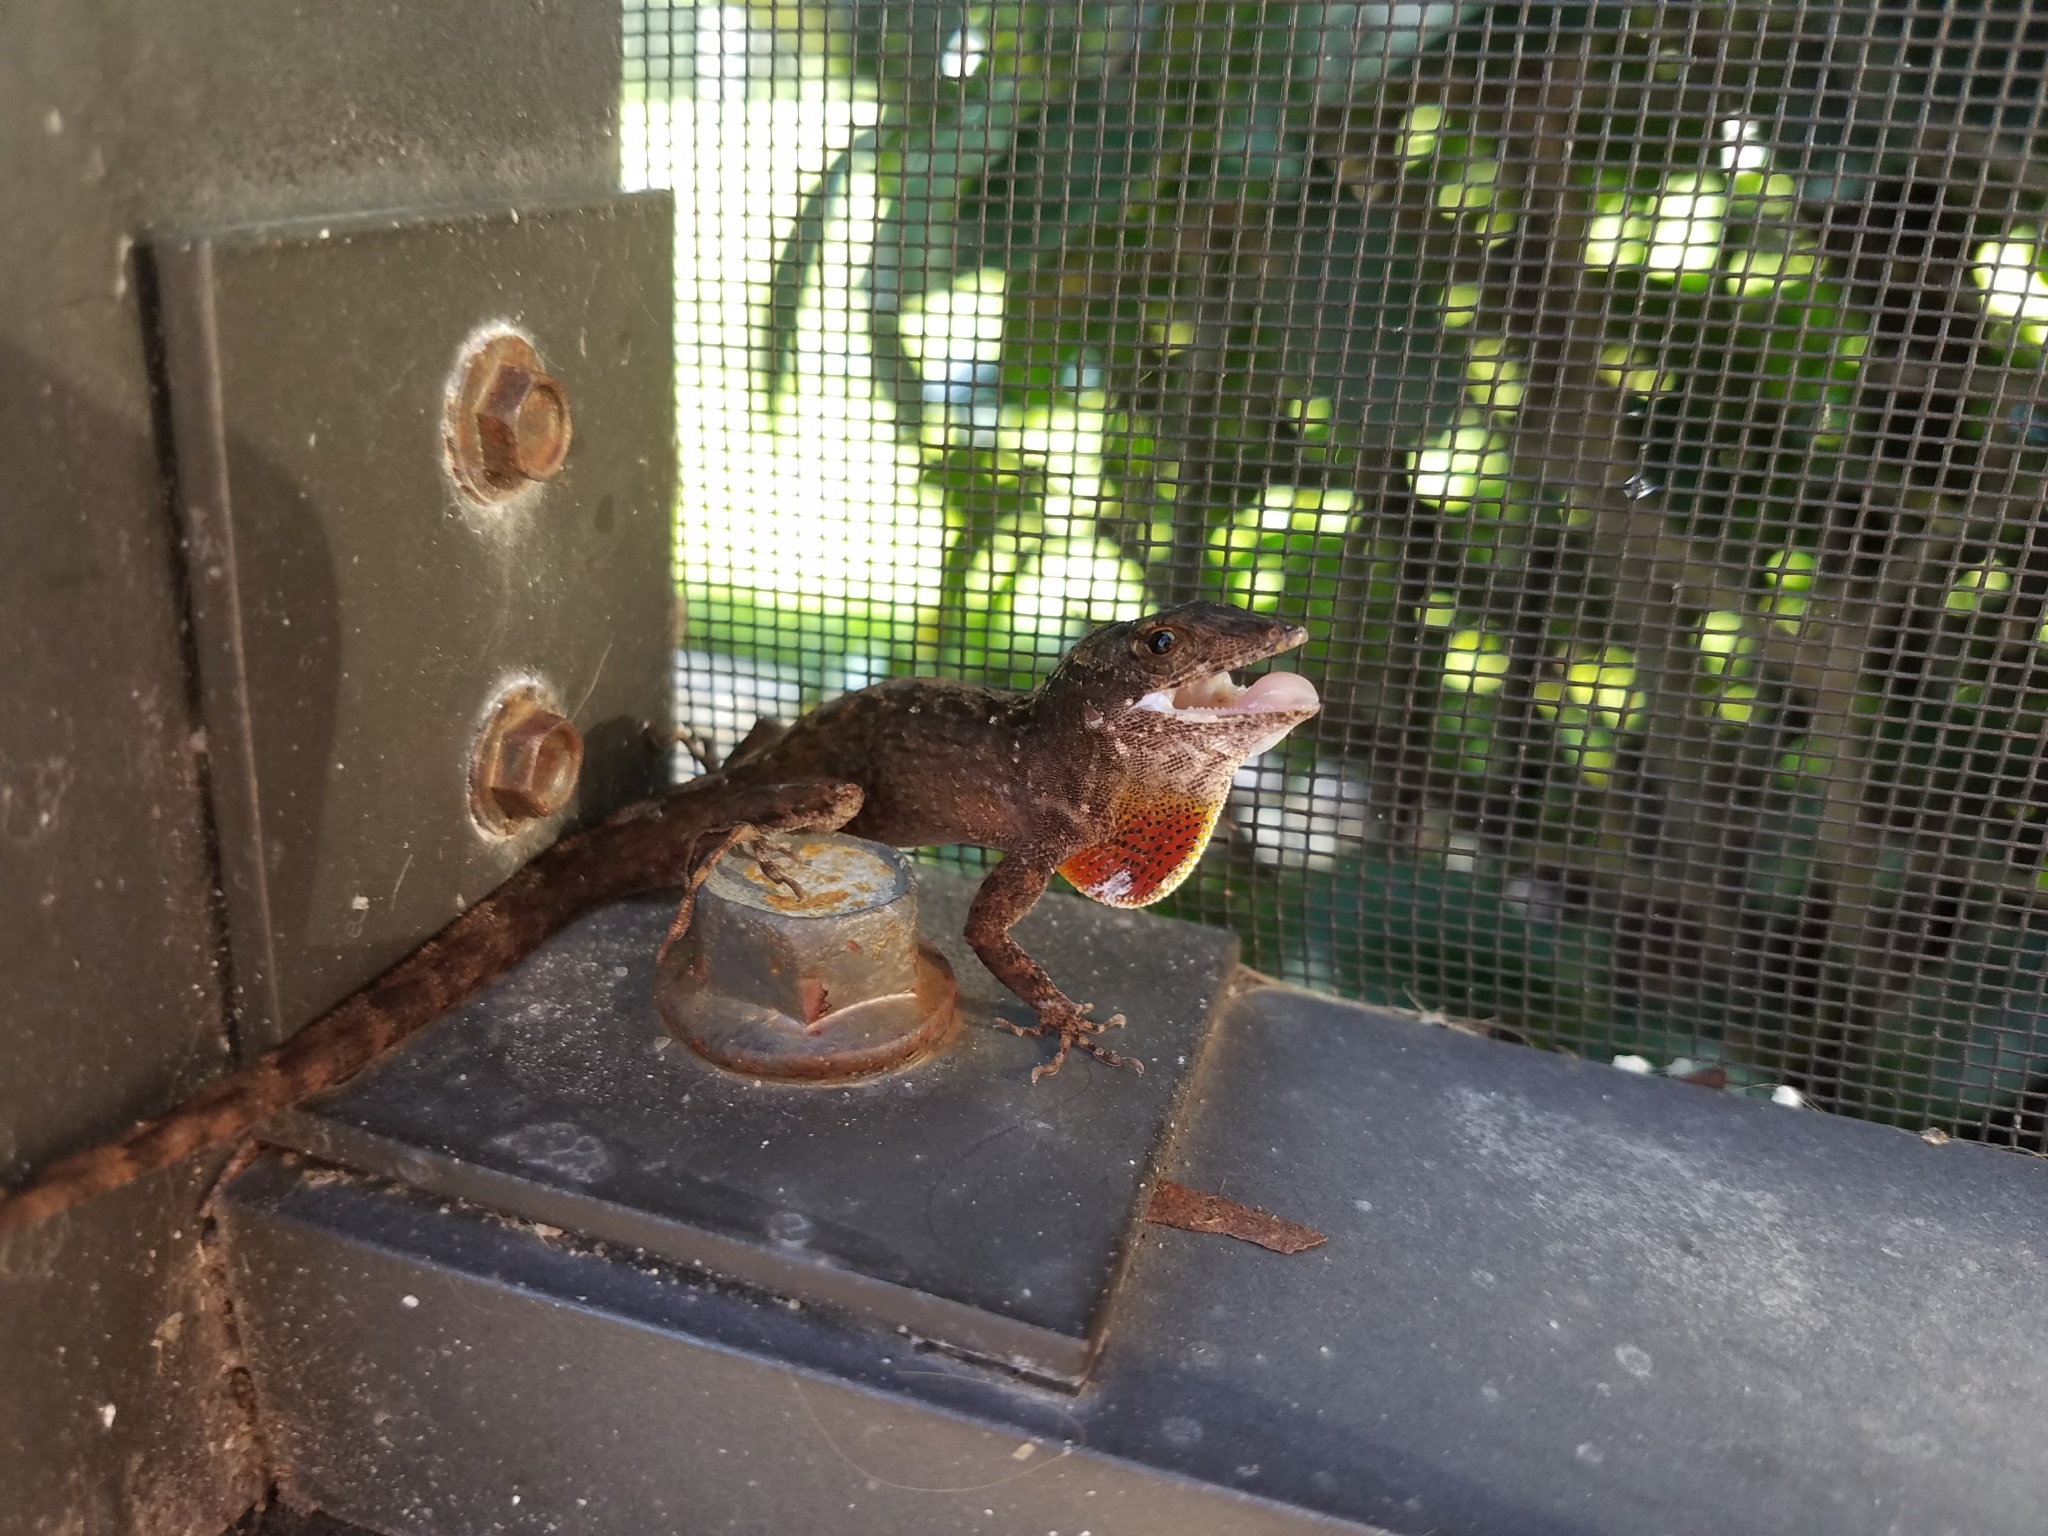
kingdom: Animalia
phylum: Chordata
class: Squamata
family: Dactyloidae
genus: Anolis
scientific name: Anolis sagrei
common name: Brown anole
